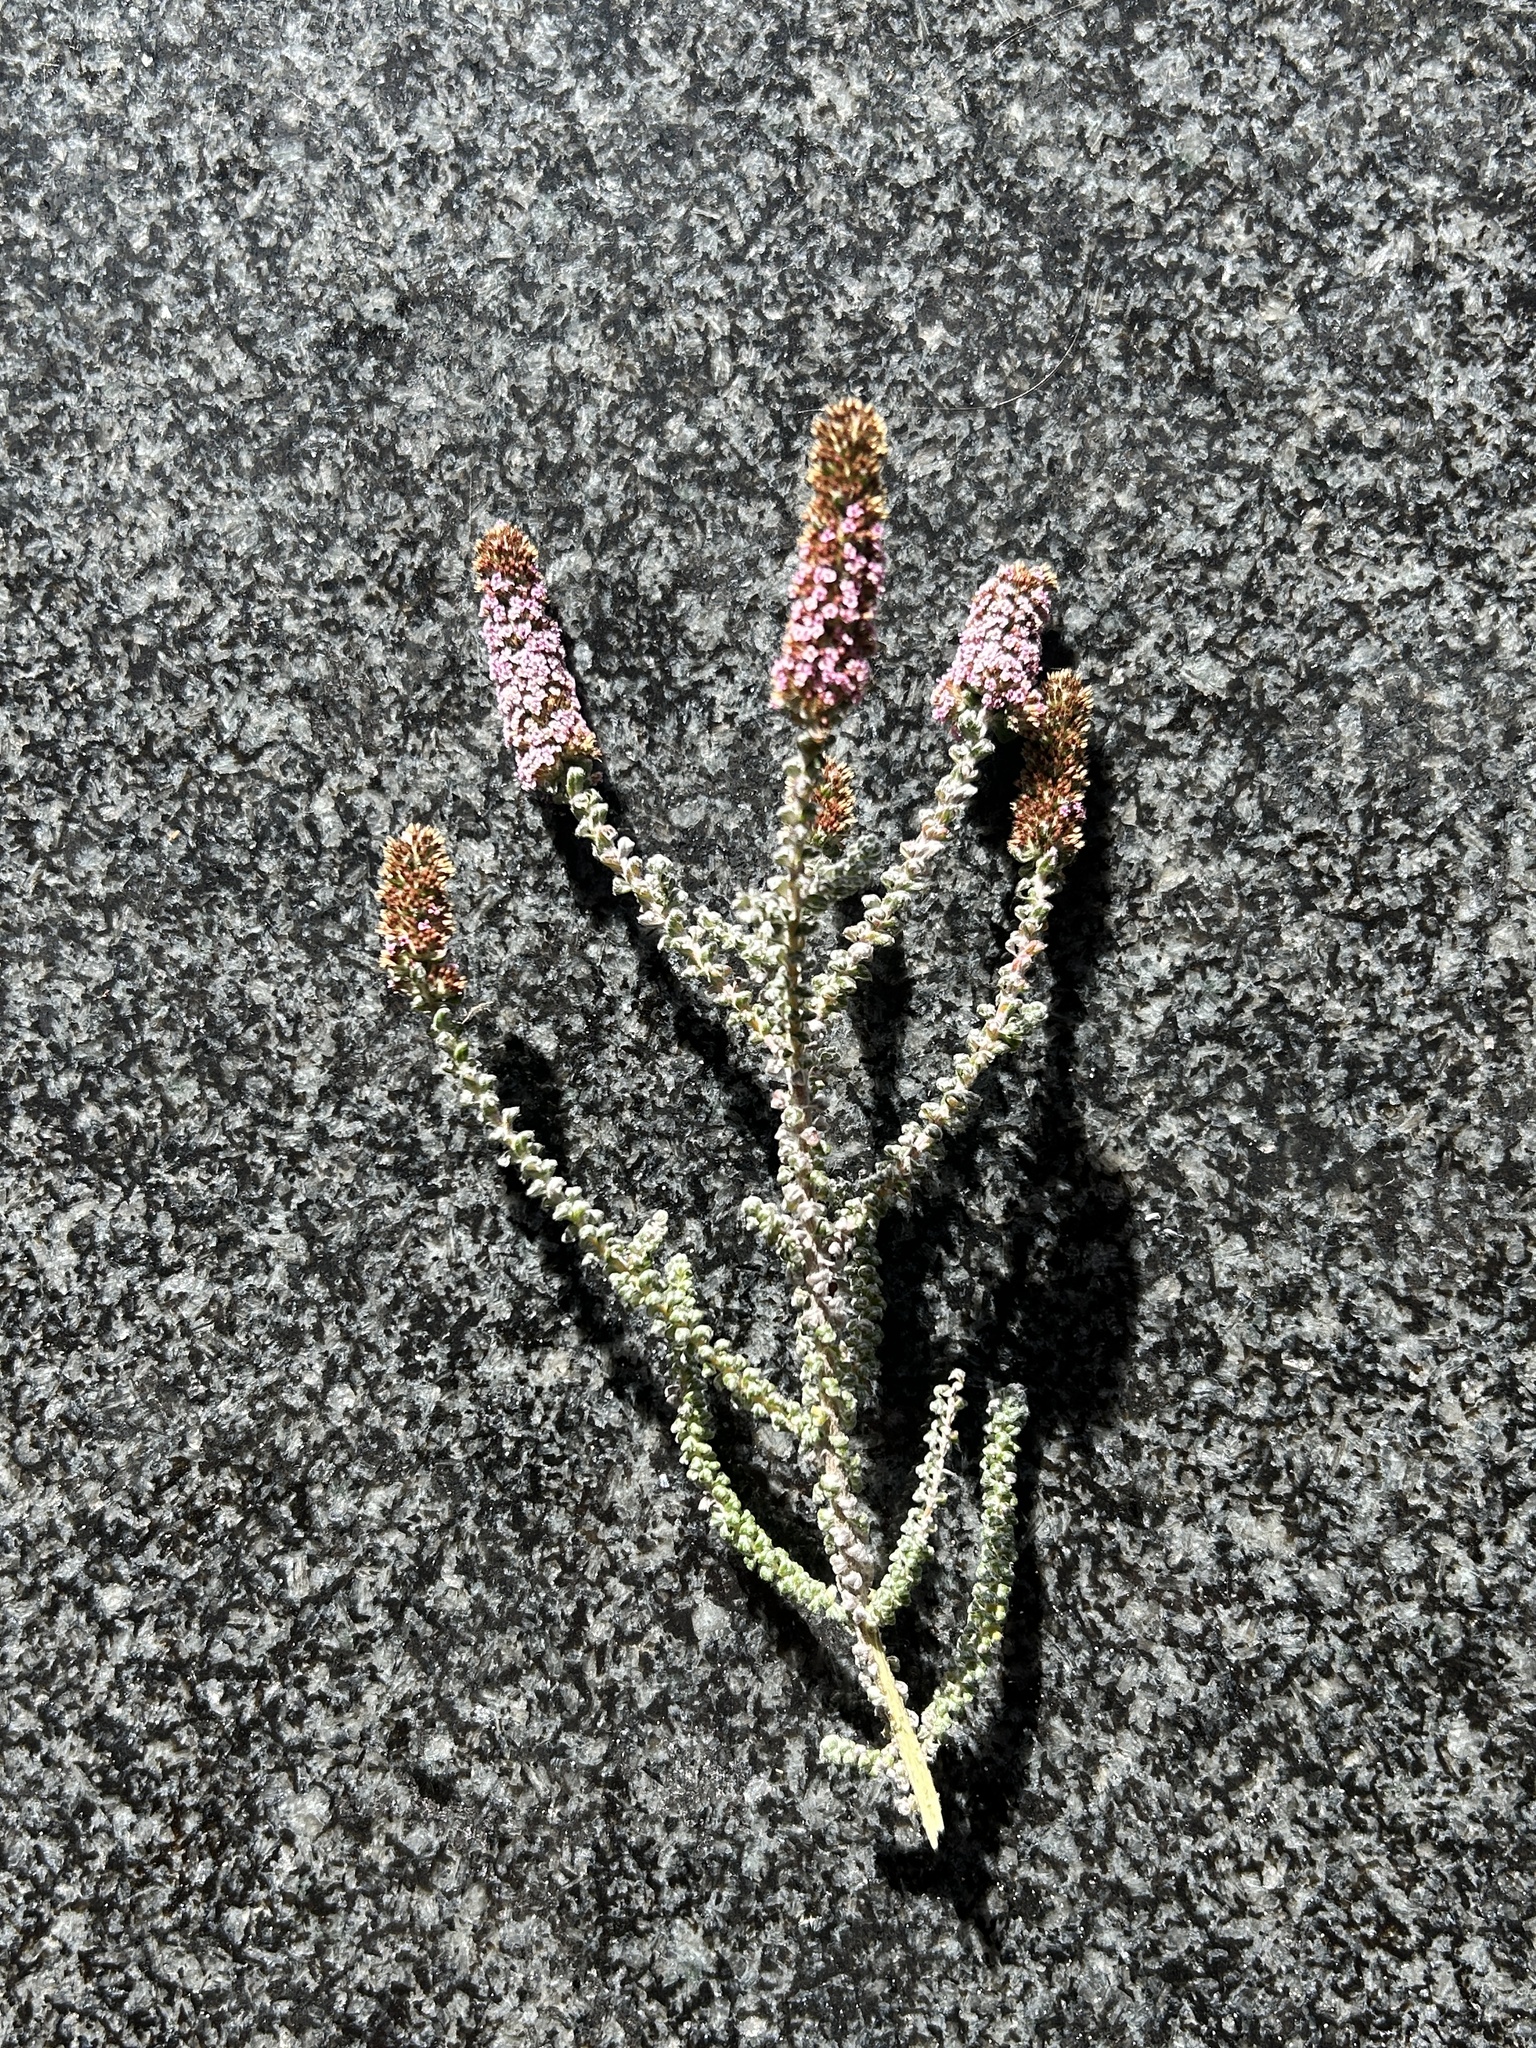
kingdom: Plantae
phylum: Tracheophyta
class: Magnoliopsida
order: Asterales
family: Asteraceae
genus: Stoebe
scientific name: Stoebe muirii
